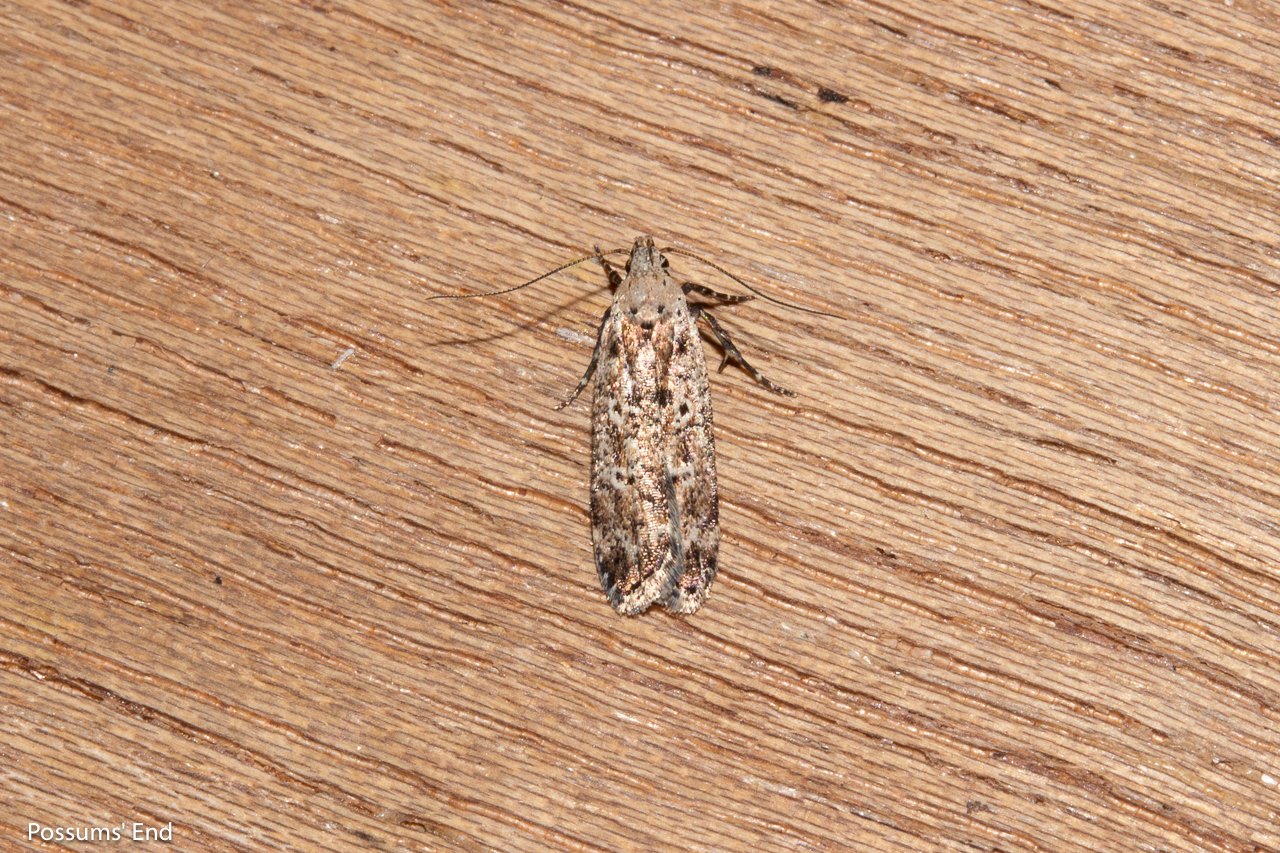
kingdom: Animalia
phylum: Arthropoda
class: Insecta
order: Lepidoptera
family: Gelechiidae
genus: Anisoplaca
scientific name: Anisoplaca achyrota
